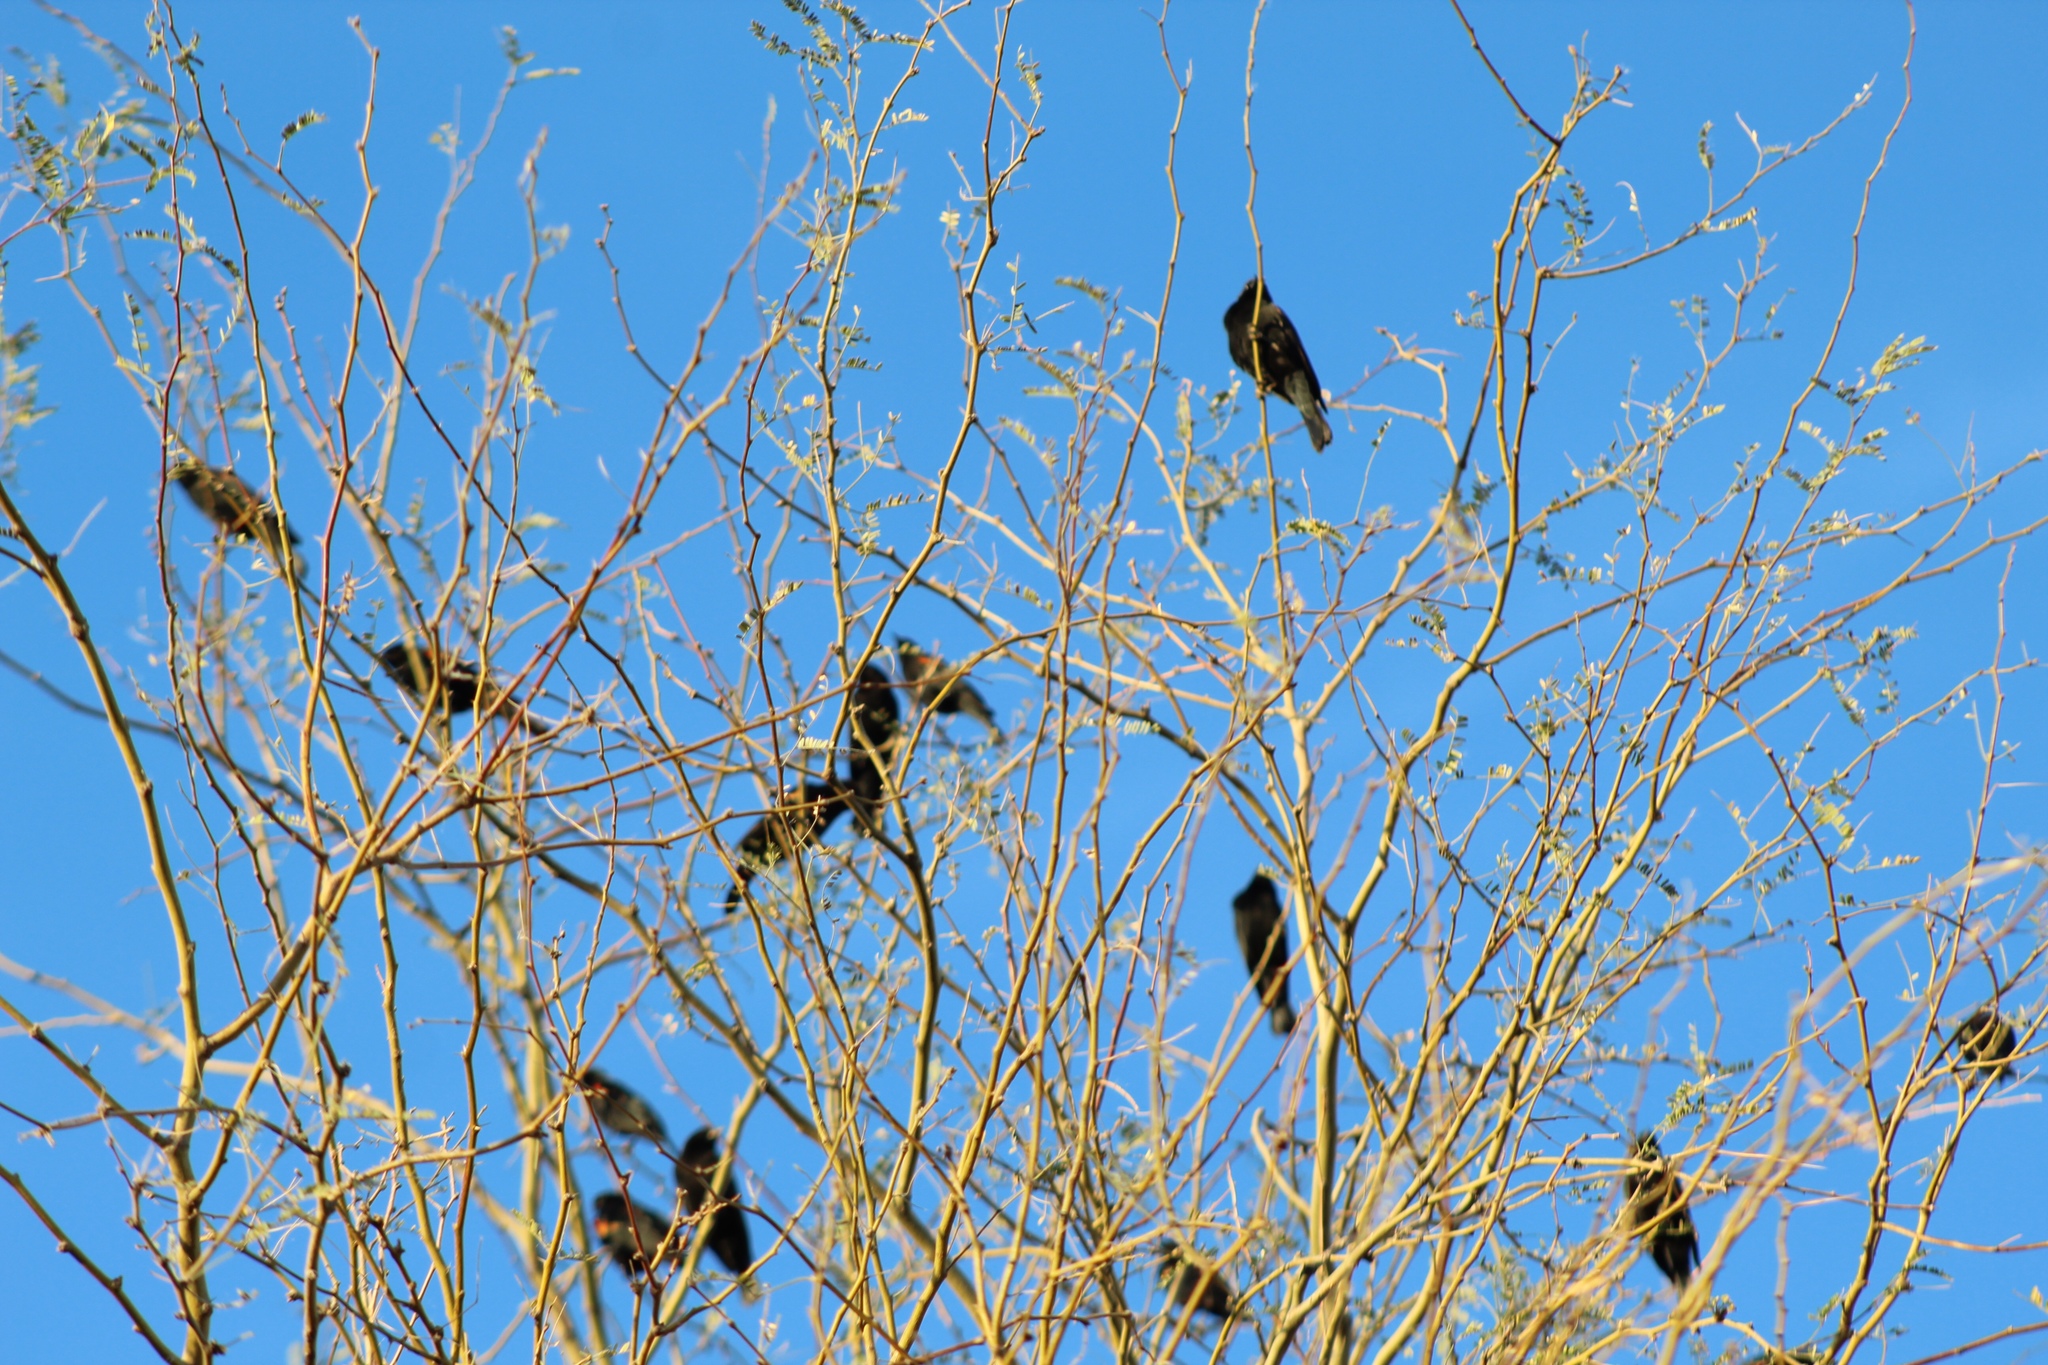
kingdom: Animalia
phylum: Chordata
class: Aves
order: Passeriformes
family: Icteridae
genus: Agelaius
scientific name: Agelaius phoeniceus
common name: Red-winged blackbird
